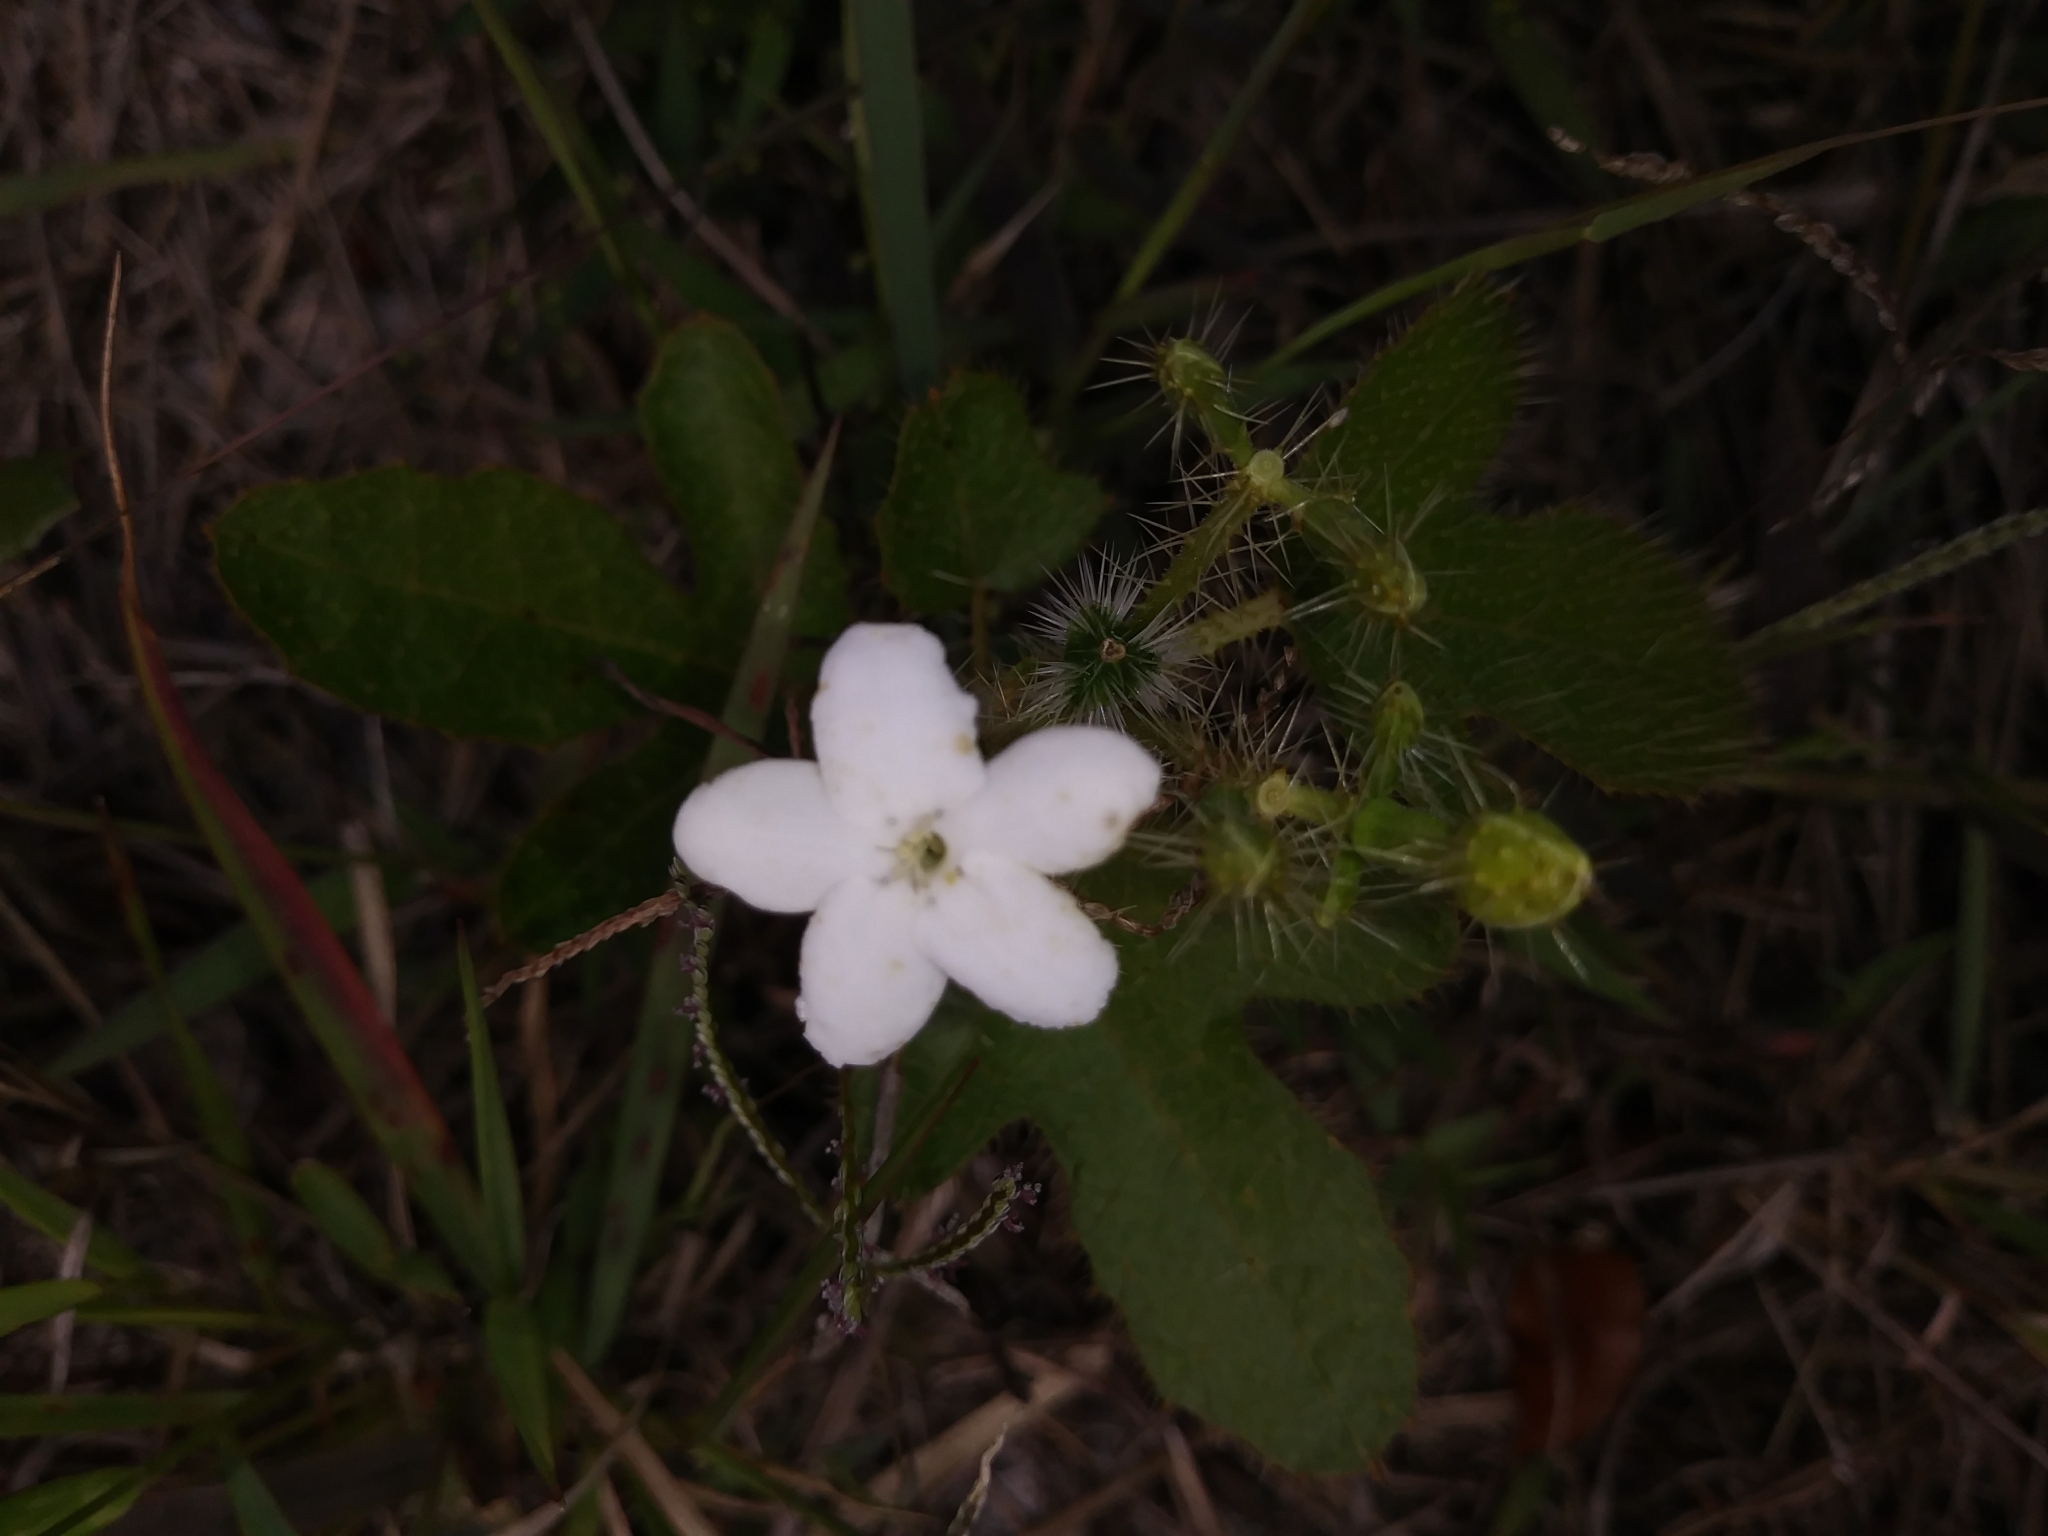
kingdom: Plantae
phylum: Tracheophyta
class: Magnoliopsida
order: Malpighiales
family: Euphorbiaceae
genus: Cnidoscolus
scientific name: Cnidoscolus stimulosus
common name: Bull-nettle
